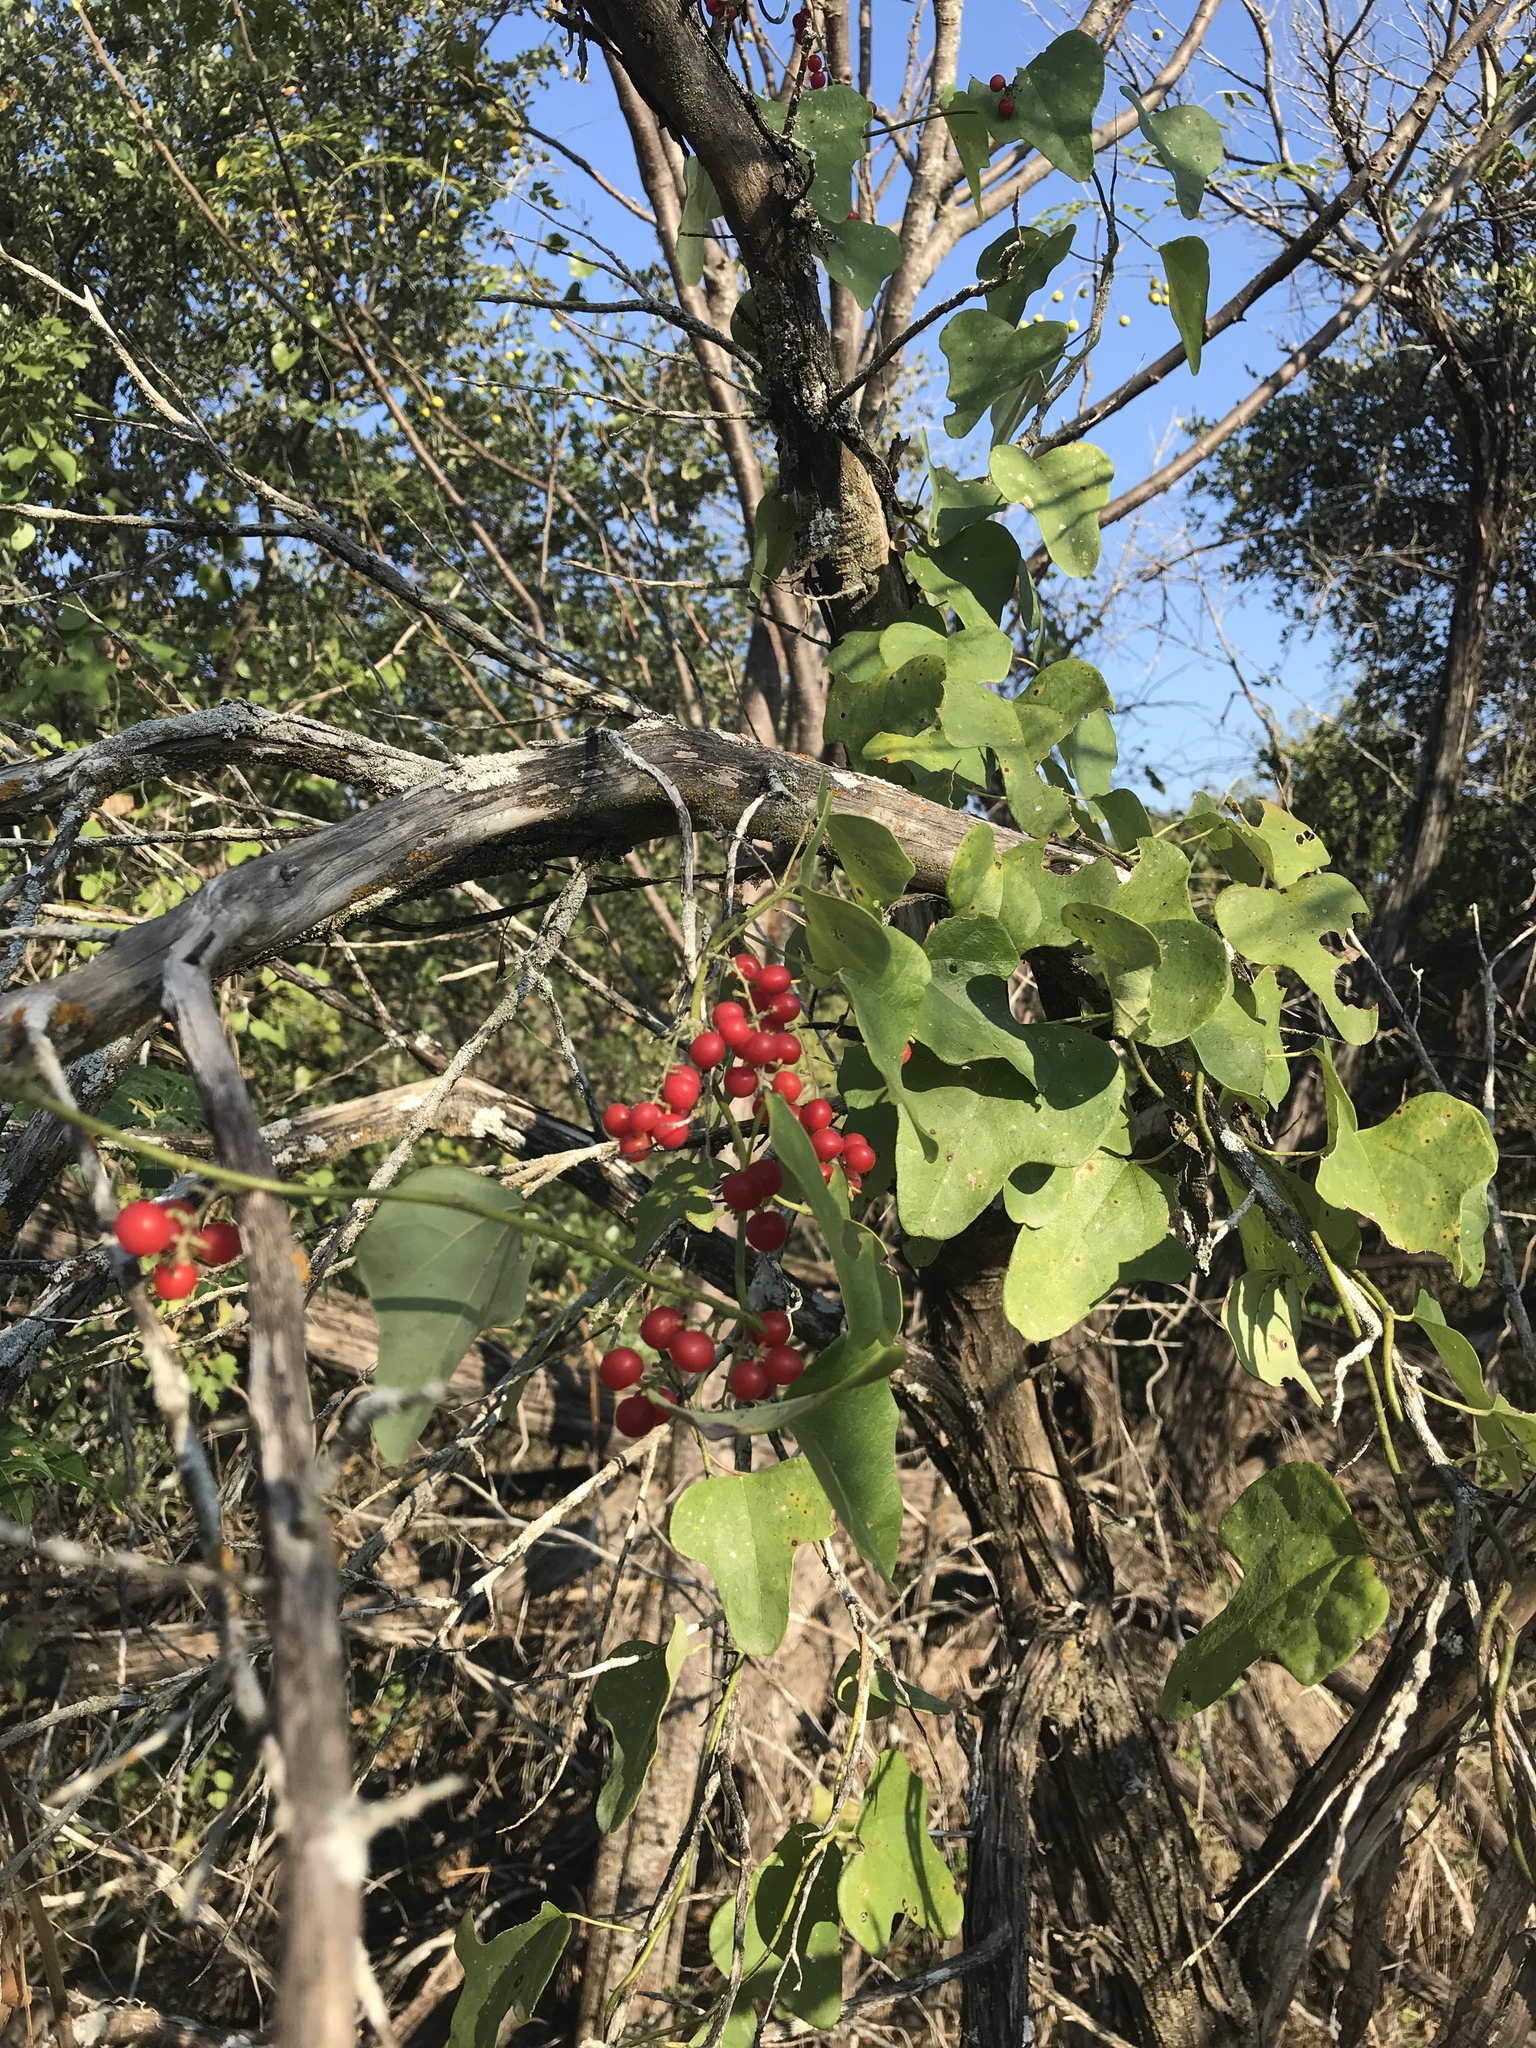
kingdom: Plantae
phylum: Tracheophyta
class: Magnoliopsida
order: Ranunculales
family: Menispermaceae
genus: Cocculus
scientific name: Cocculus carolinus
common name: Carolina moonseed
